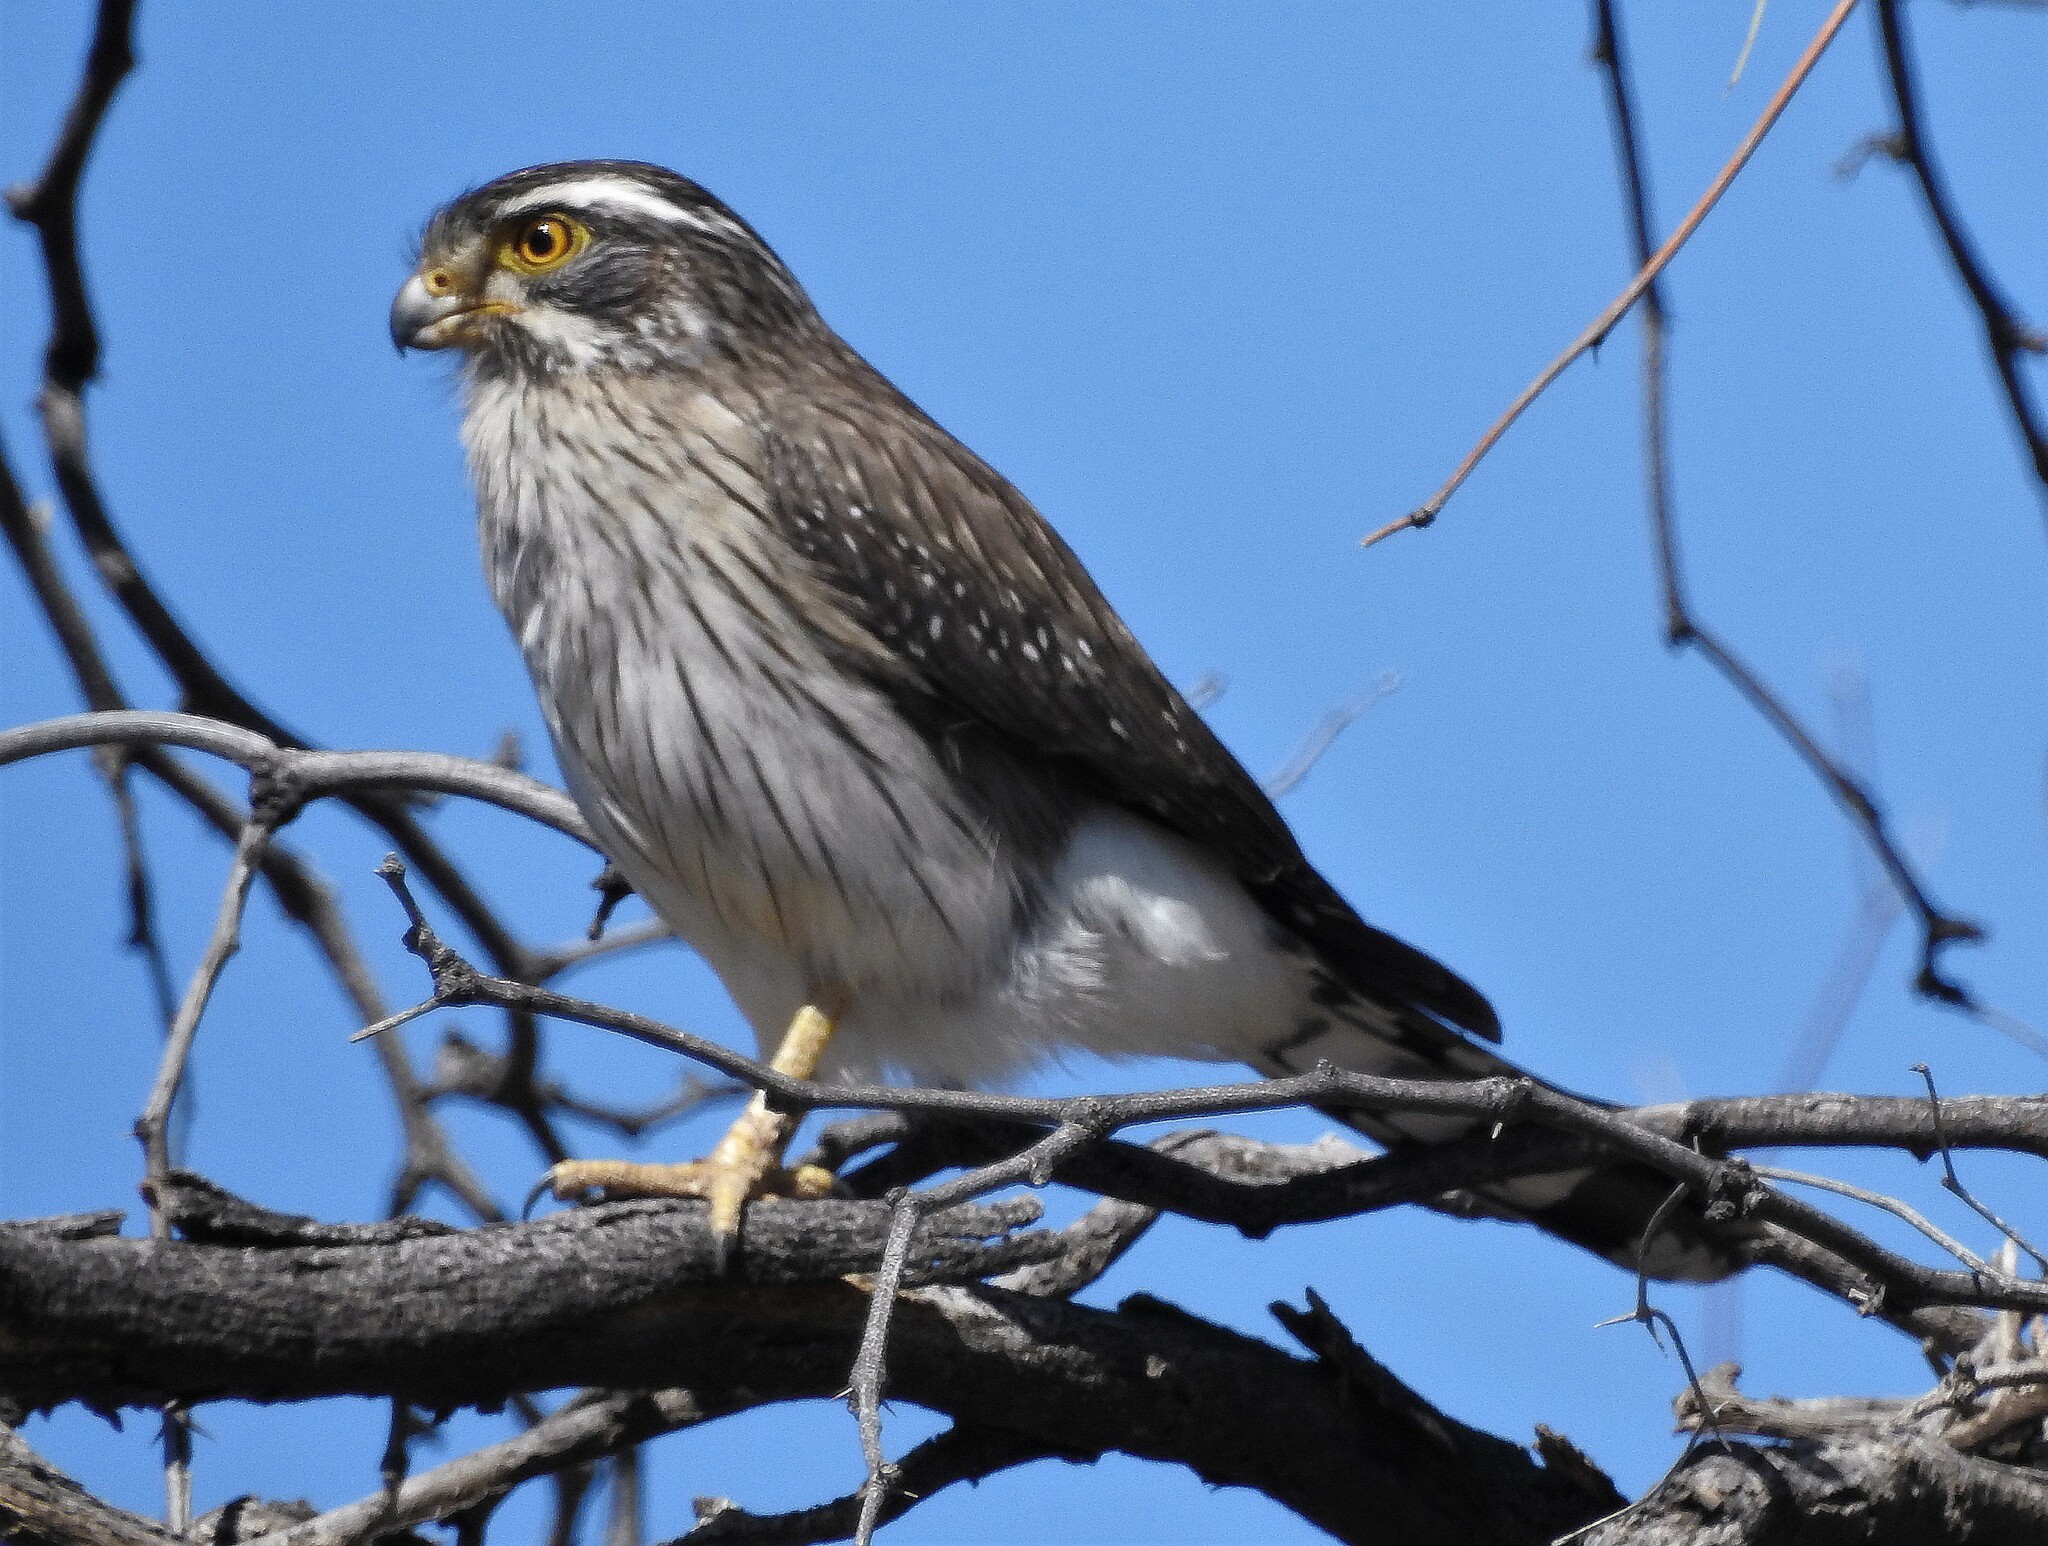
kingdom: Animalia
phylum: Chordata
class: Aves
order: Falconiformes
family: Falconidae
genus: Spiziapteryx
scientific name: Spiziapteryx circumcincta
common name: Spot-winged falconet
